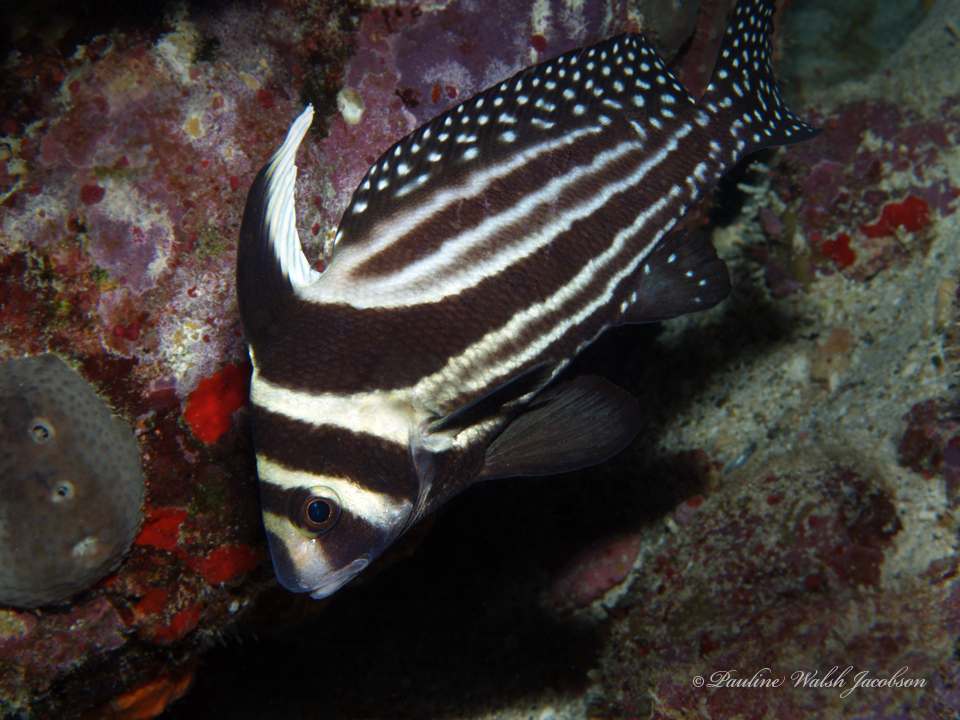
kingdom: Animalia
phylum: Chordata
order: Perciformes
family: Sciaenidae
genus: Equetus
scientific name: Equetus punctatus
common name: Spotted drum
